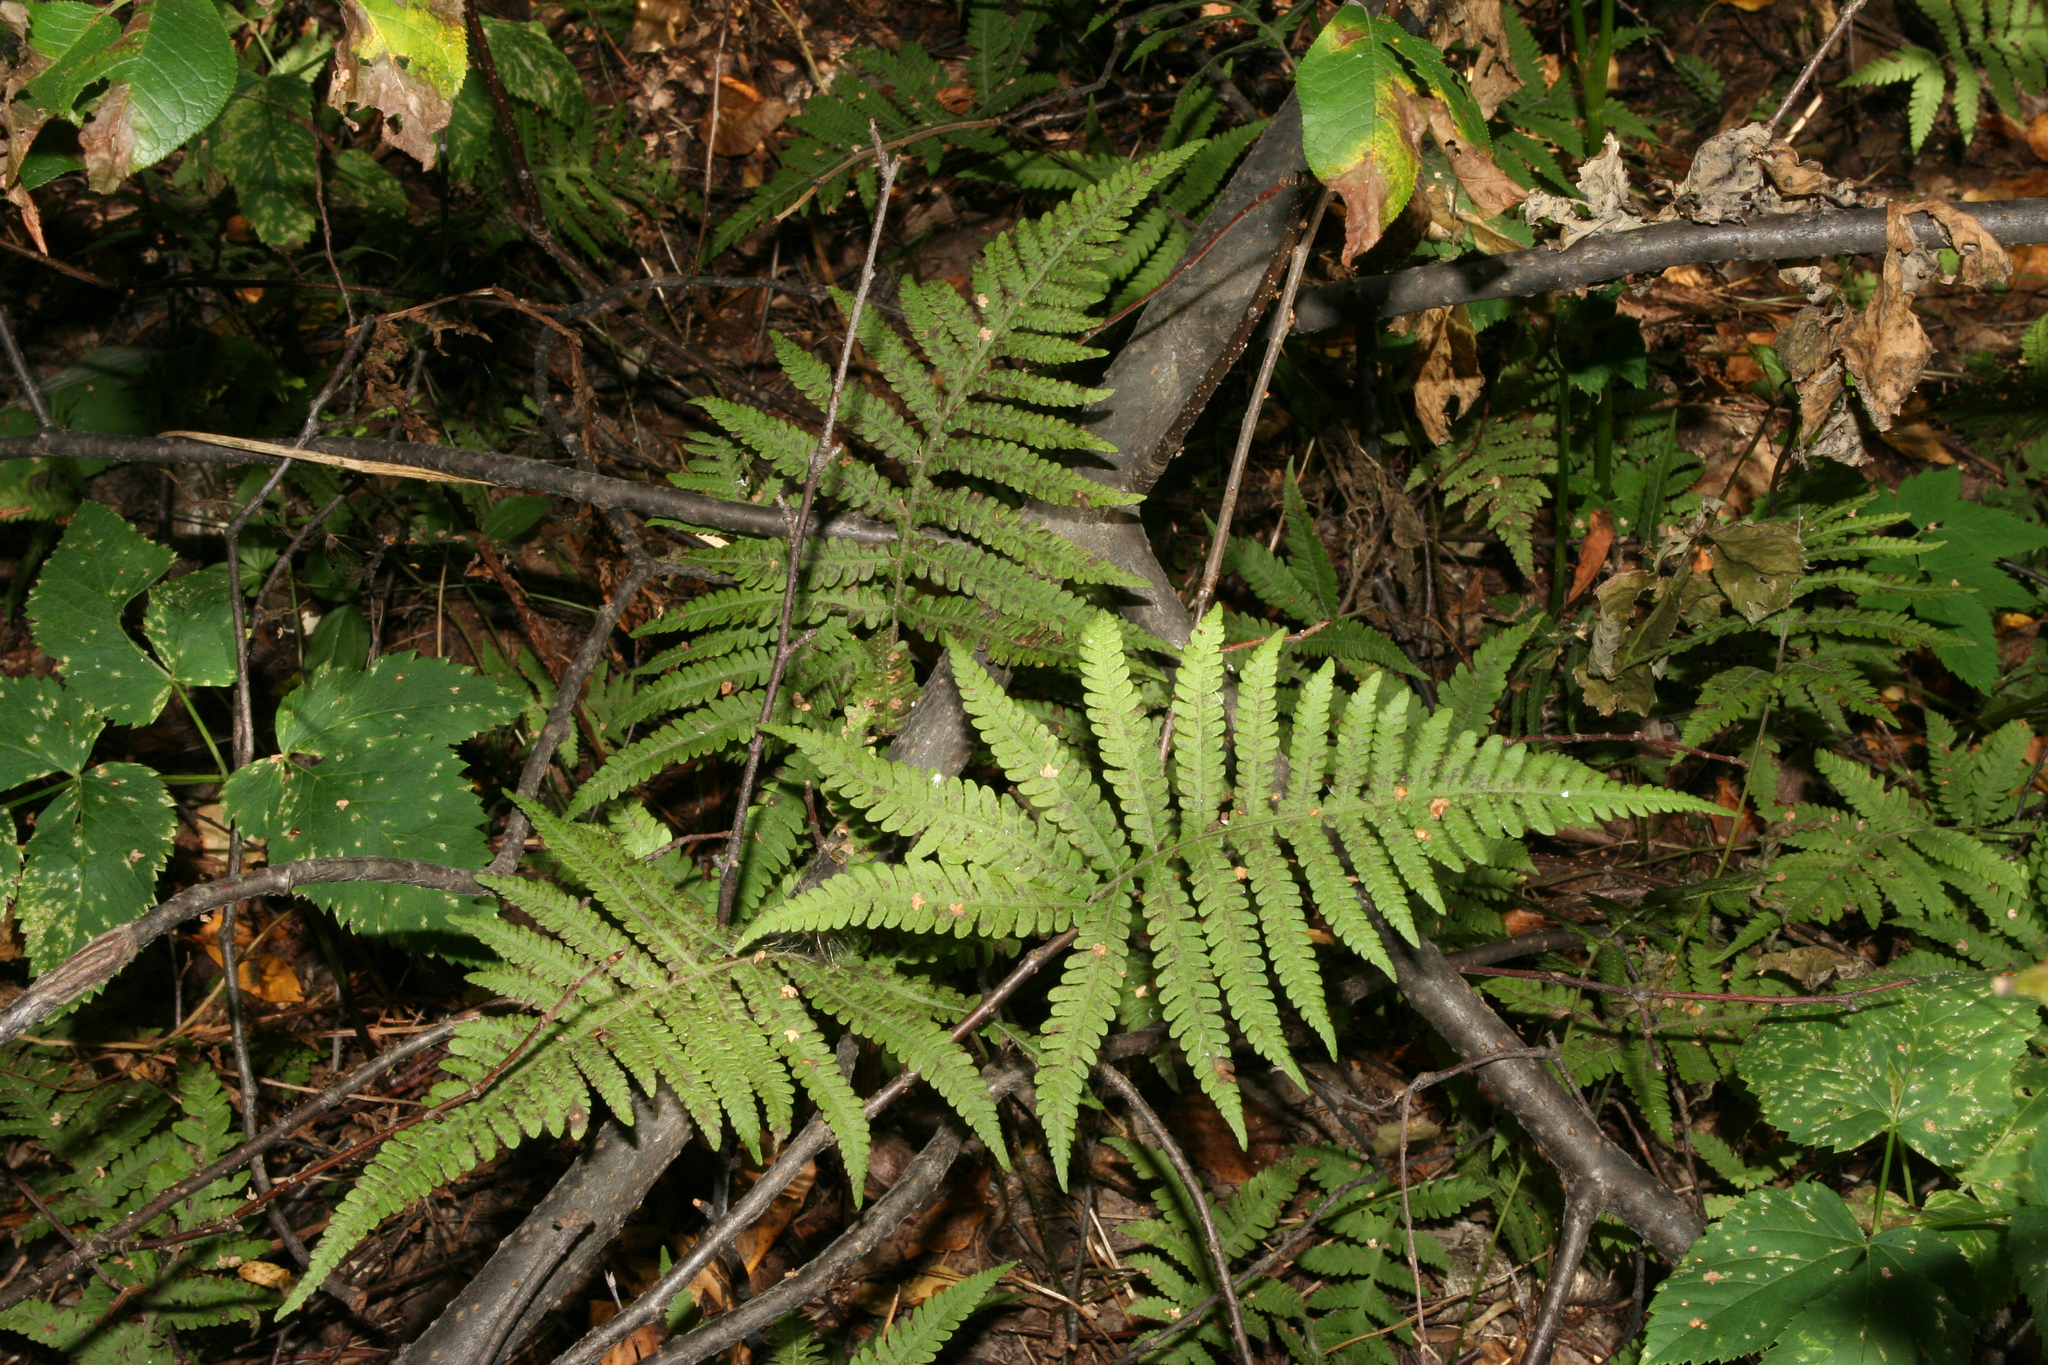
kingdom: Plantae
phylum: Tracheophyta
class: Polypodiopsida
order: Polypodiales
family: Thelypteridaceae
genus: Phegopteris
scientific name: Phegopteris connectilis
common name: Beech fern
